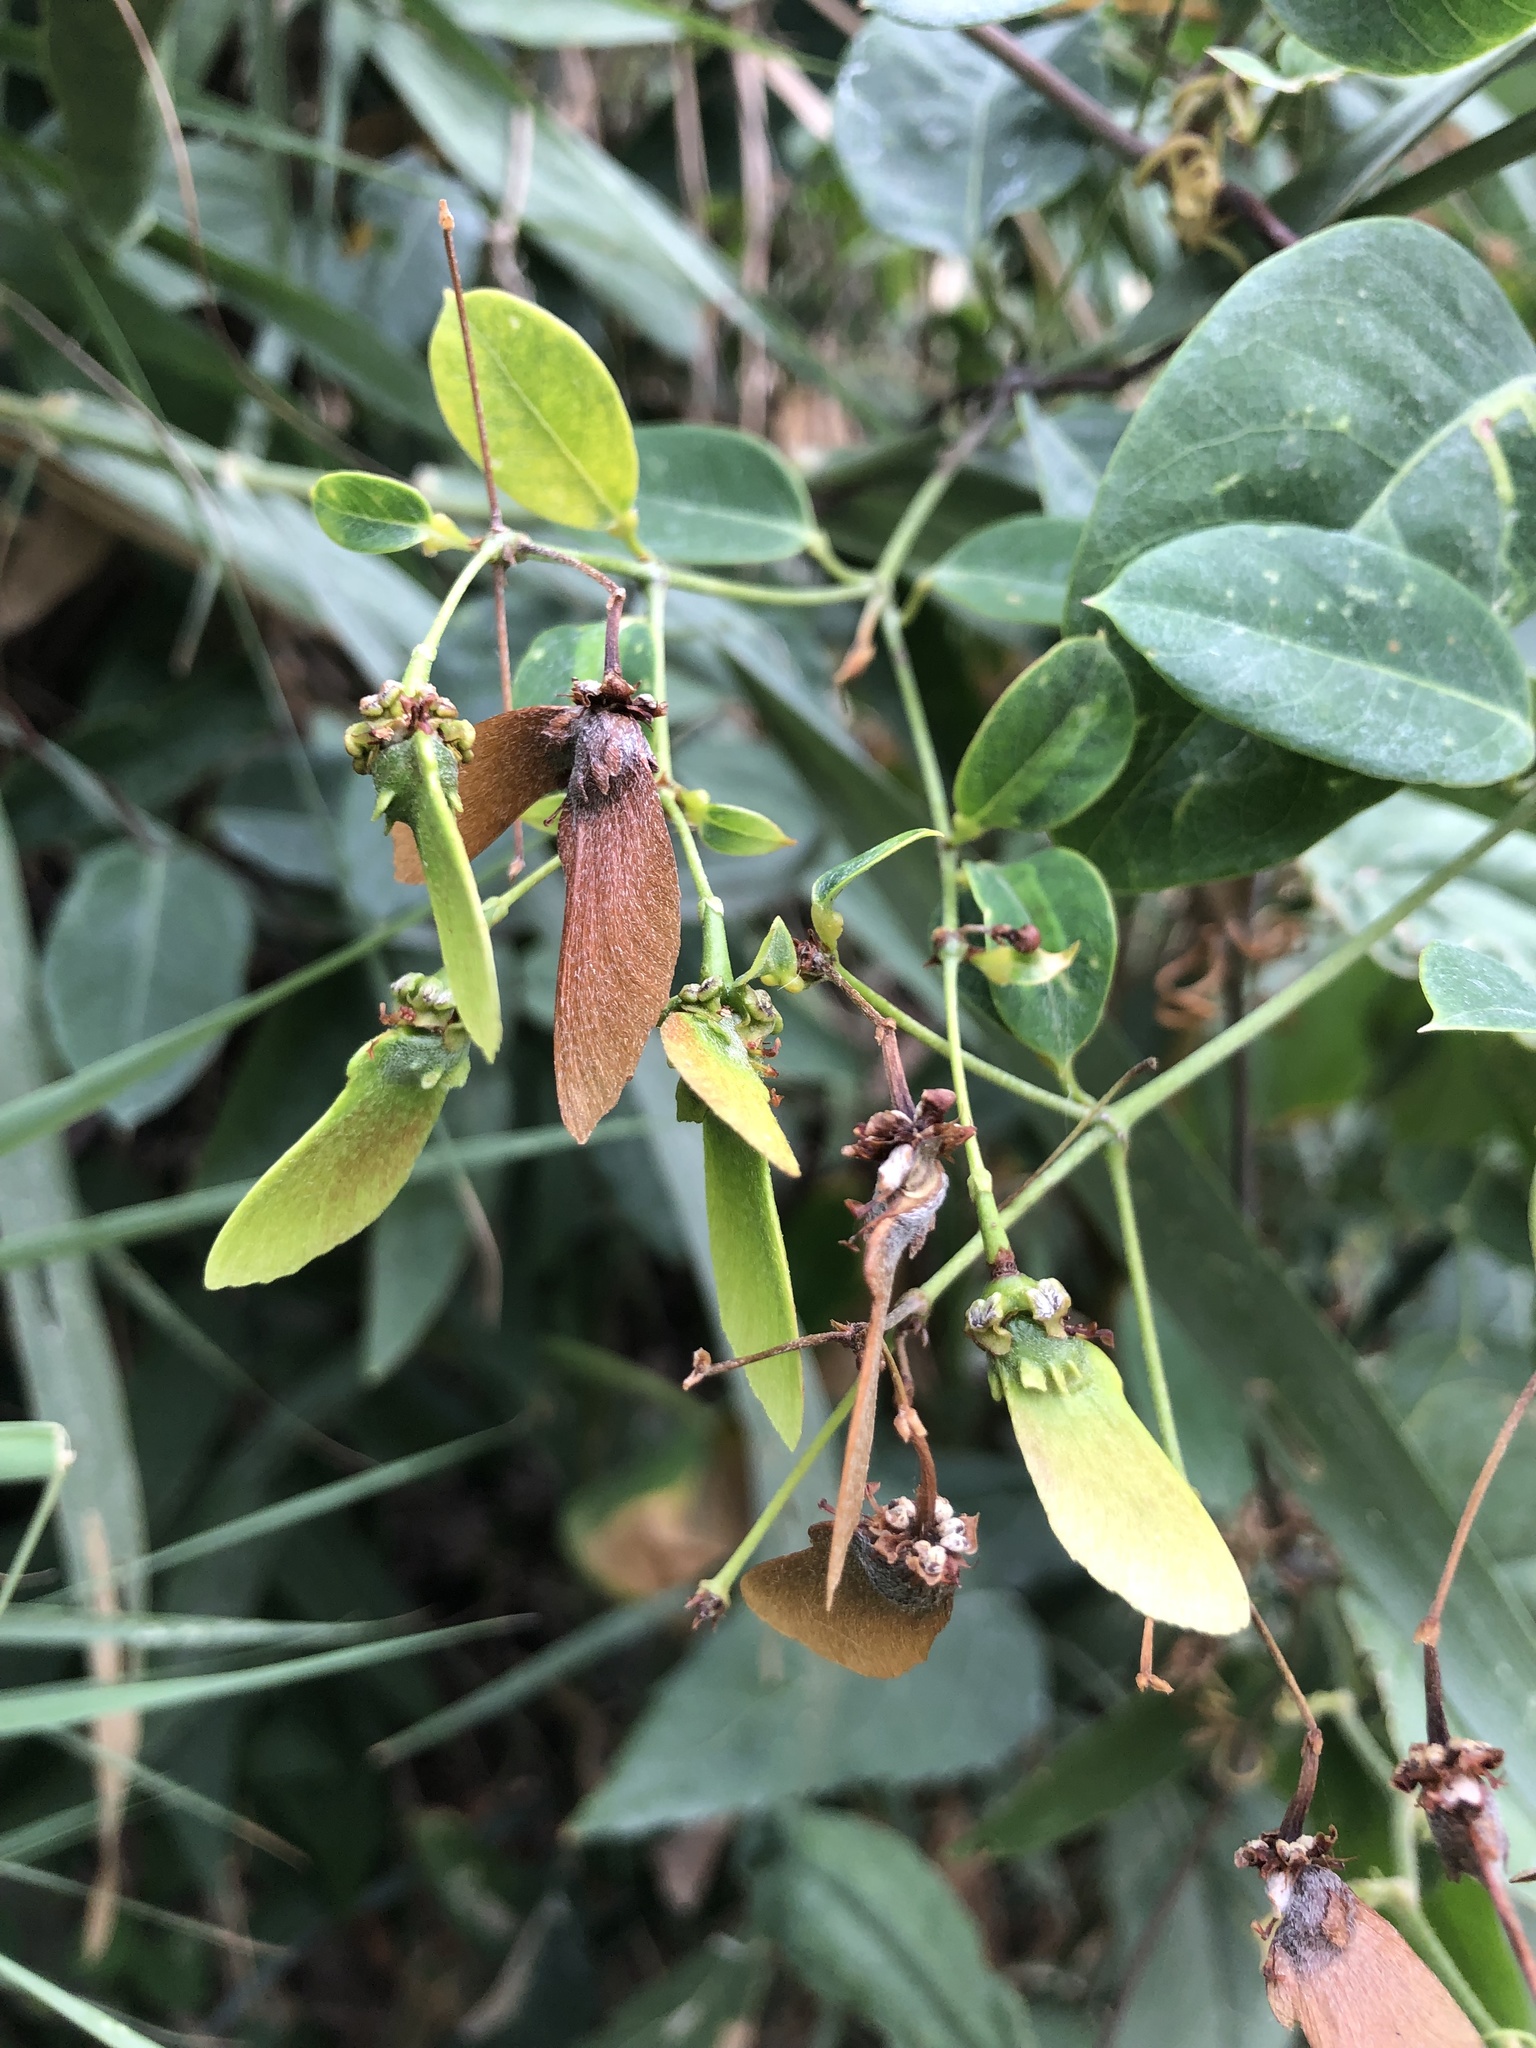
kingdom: Plantae
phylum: Tracheophyta
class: Magnoliopsida
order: Malpighiales
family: Malpighiaceae
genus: Stigmaphyllon
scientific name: Stigmaphyllon ellipticum
